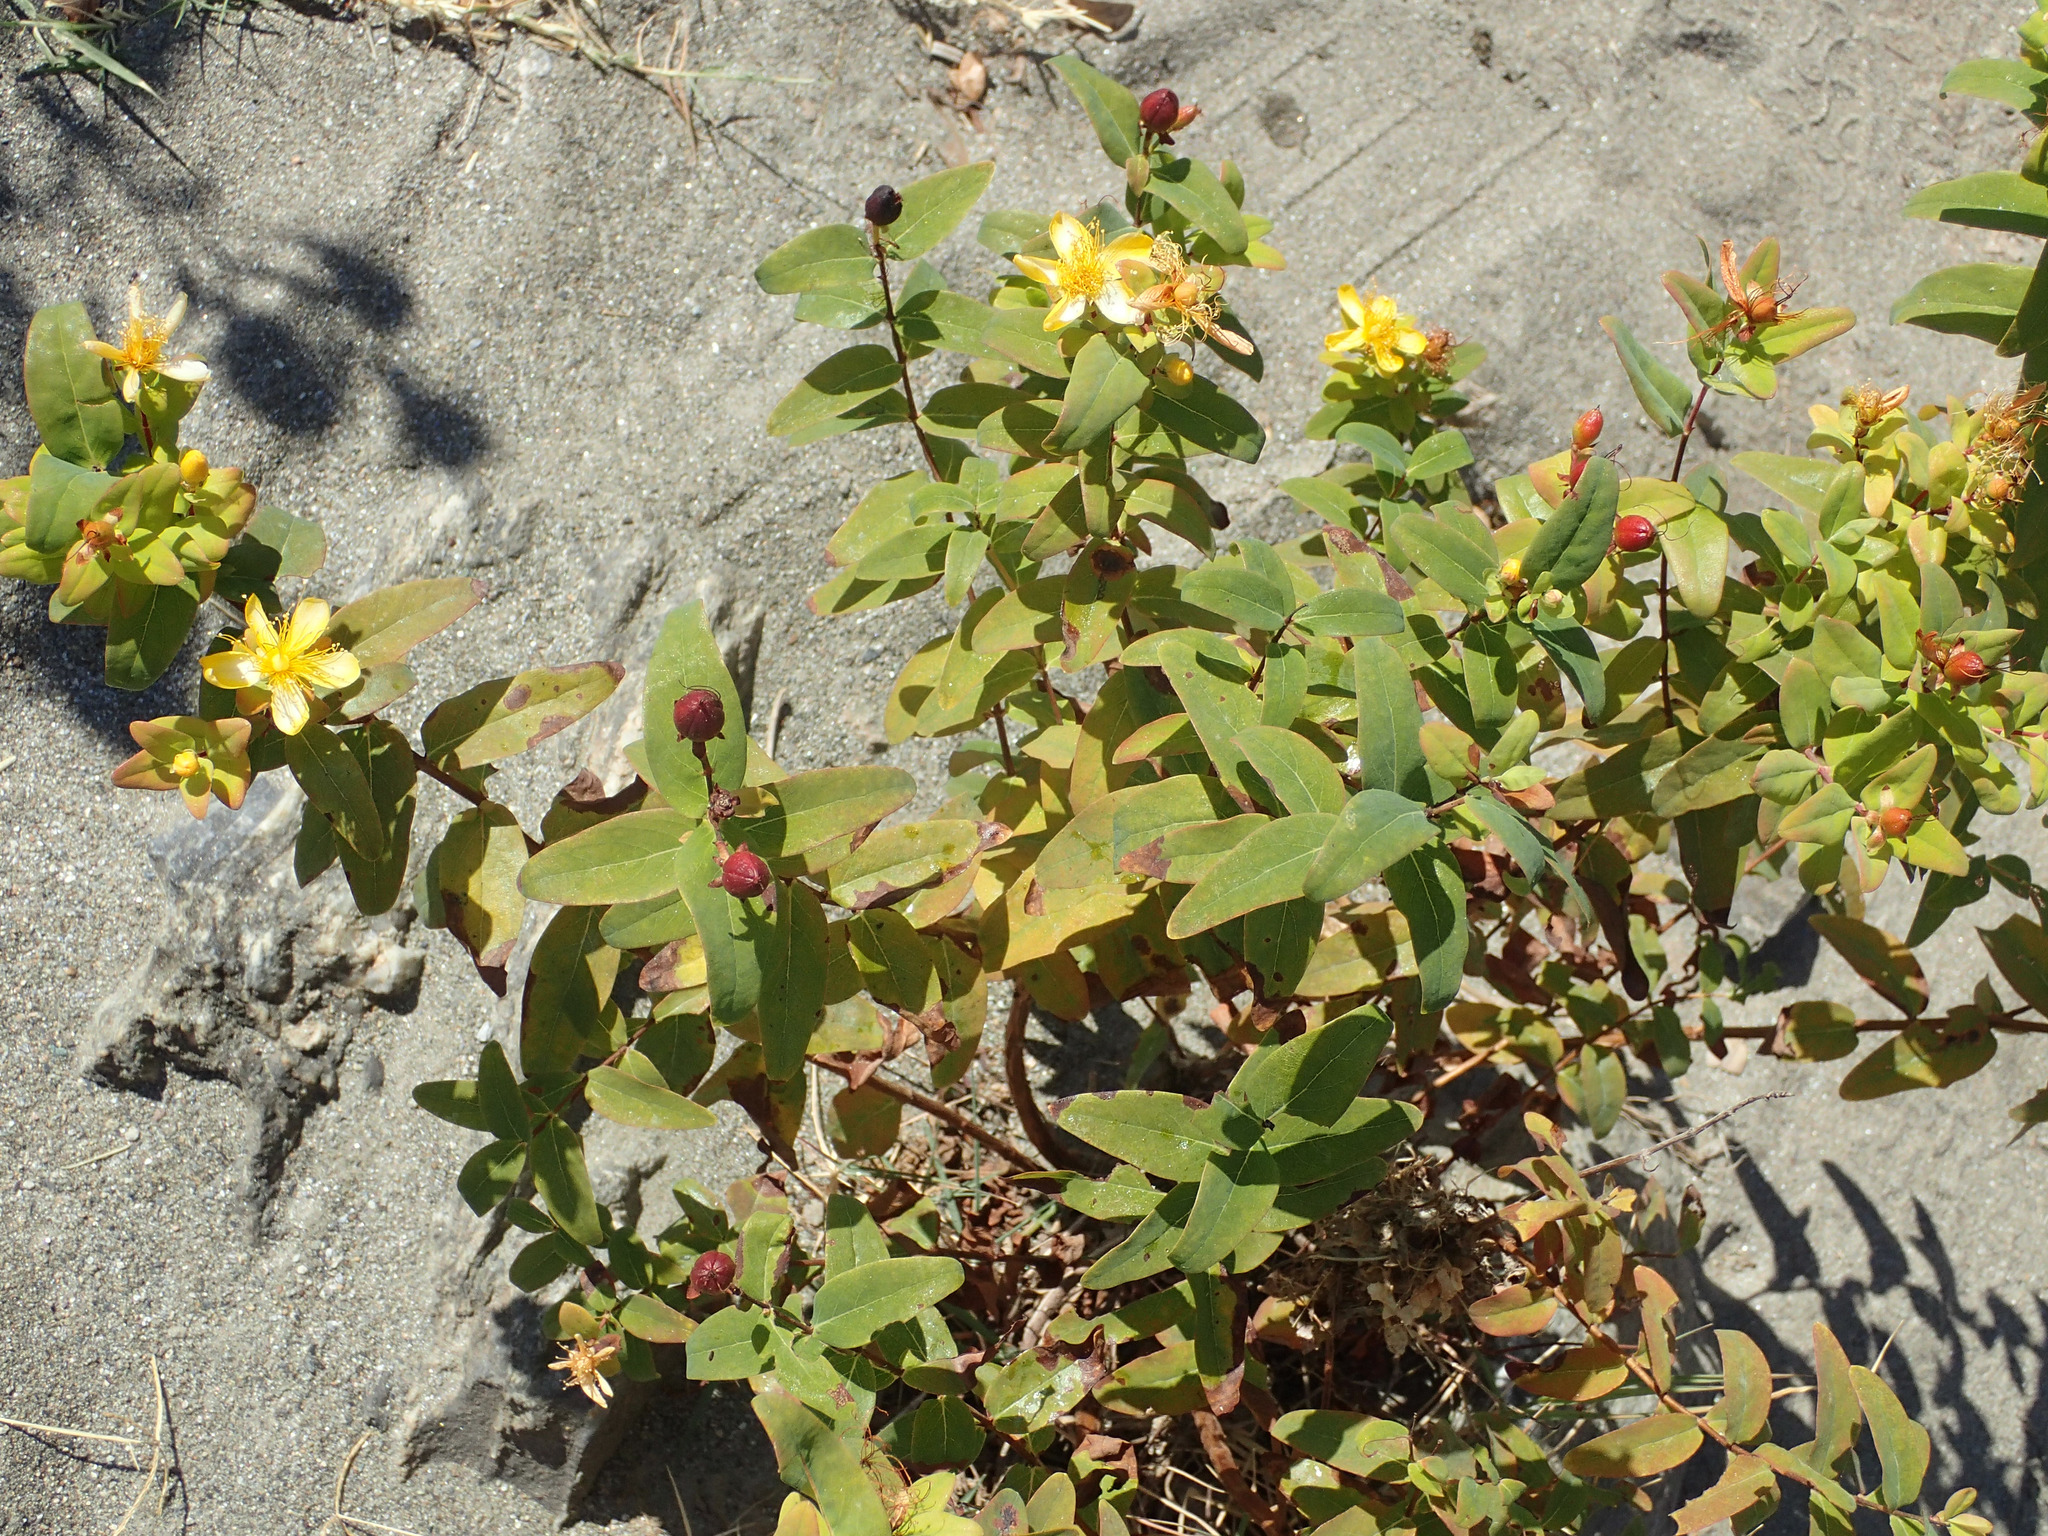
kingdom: Plantae
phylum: Tracheophyta
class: Magnoliopsida
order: Malpighiales
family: Hypericaceae
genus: Hypericum
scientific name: Hypericum hircinum
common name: Stinking tutsan
